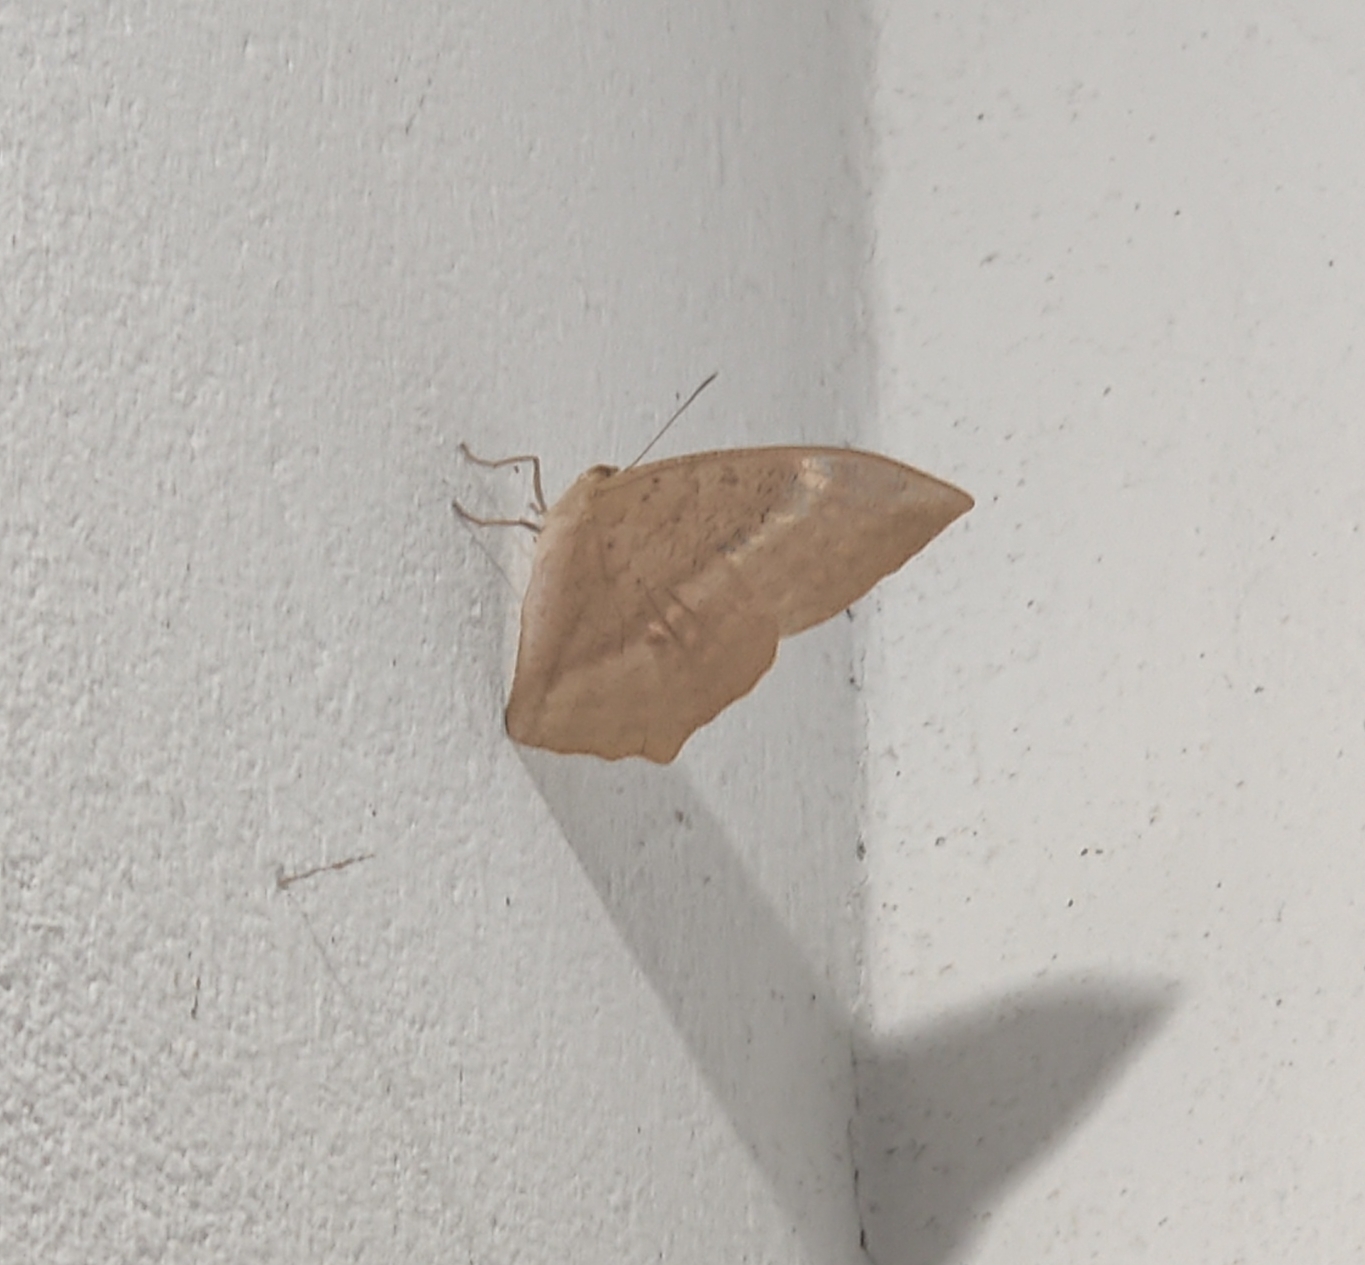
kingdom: Animalia
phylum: Arthropoda
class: Insecta
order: Lepidoptera
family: Nymphalidae
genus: Discophora
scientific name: Discophora sondaica
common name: Common duffer
